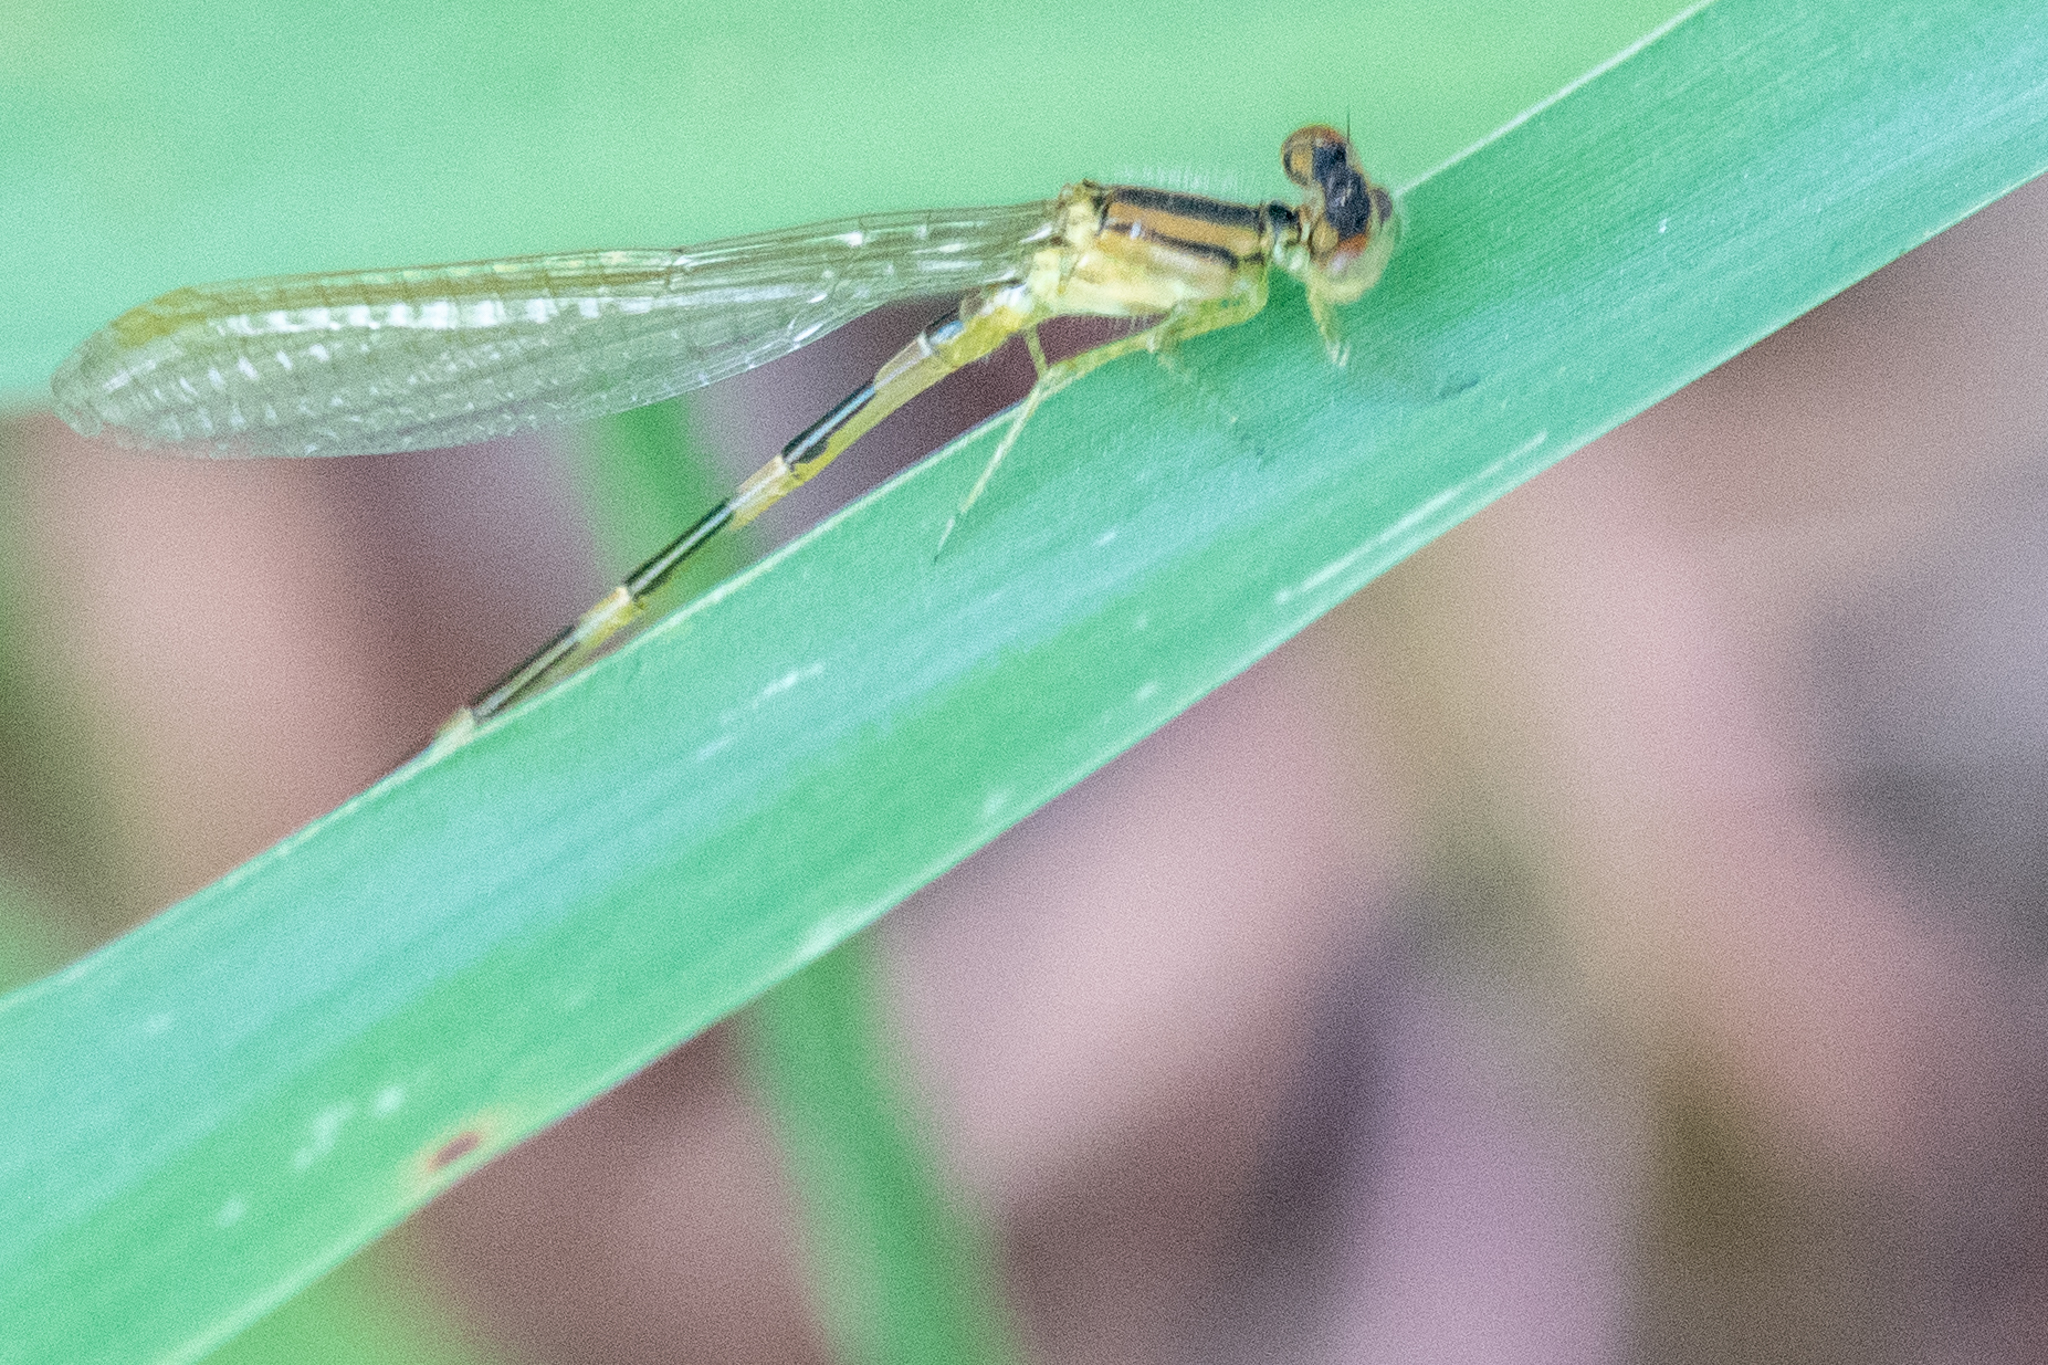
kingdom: Animalia
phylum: Arthropoda
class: Insecta
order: Odonata
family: Coenagrionidae
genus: Enallagma
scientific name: Enallagma carunculatum
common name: Tule bluet
